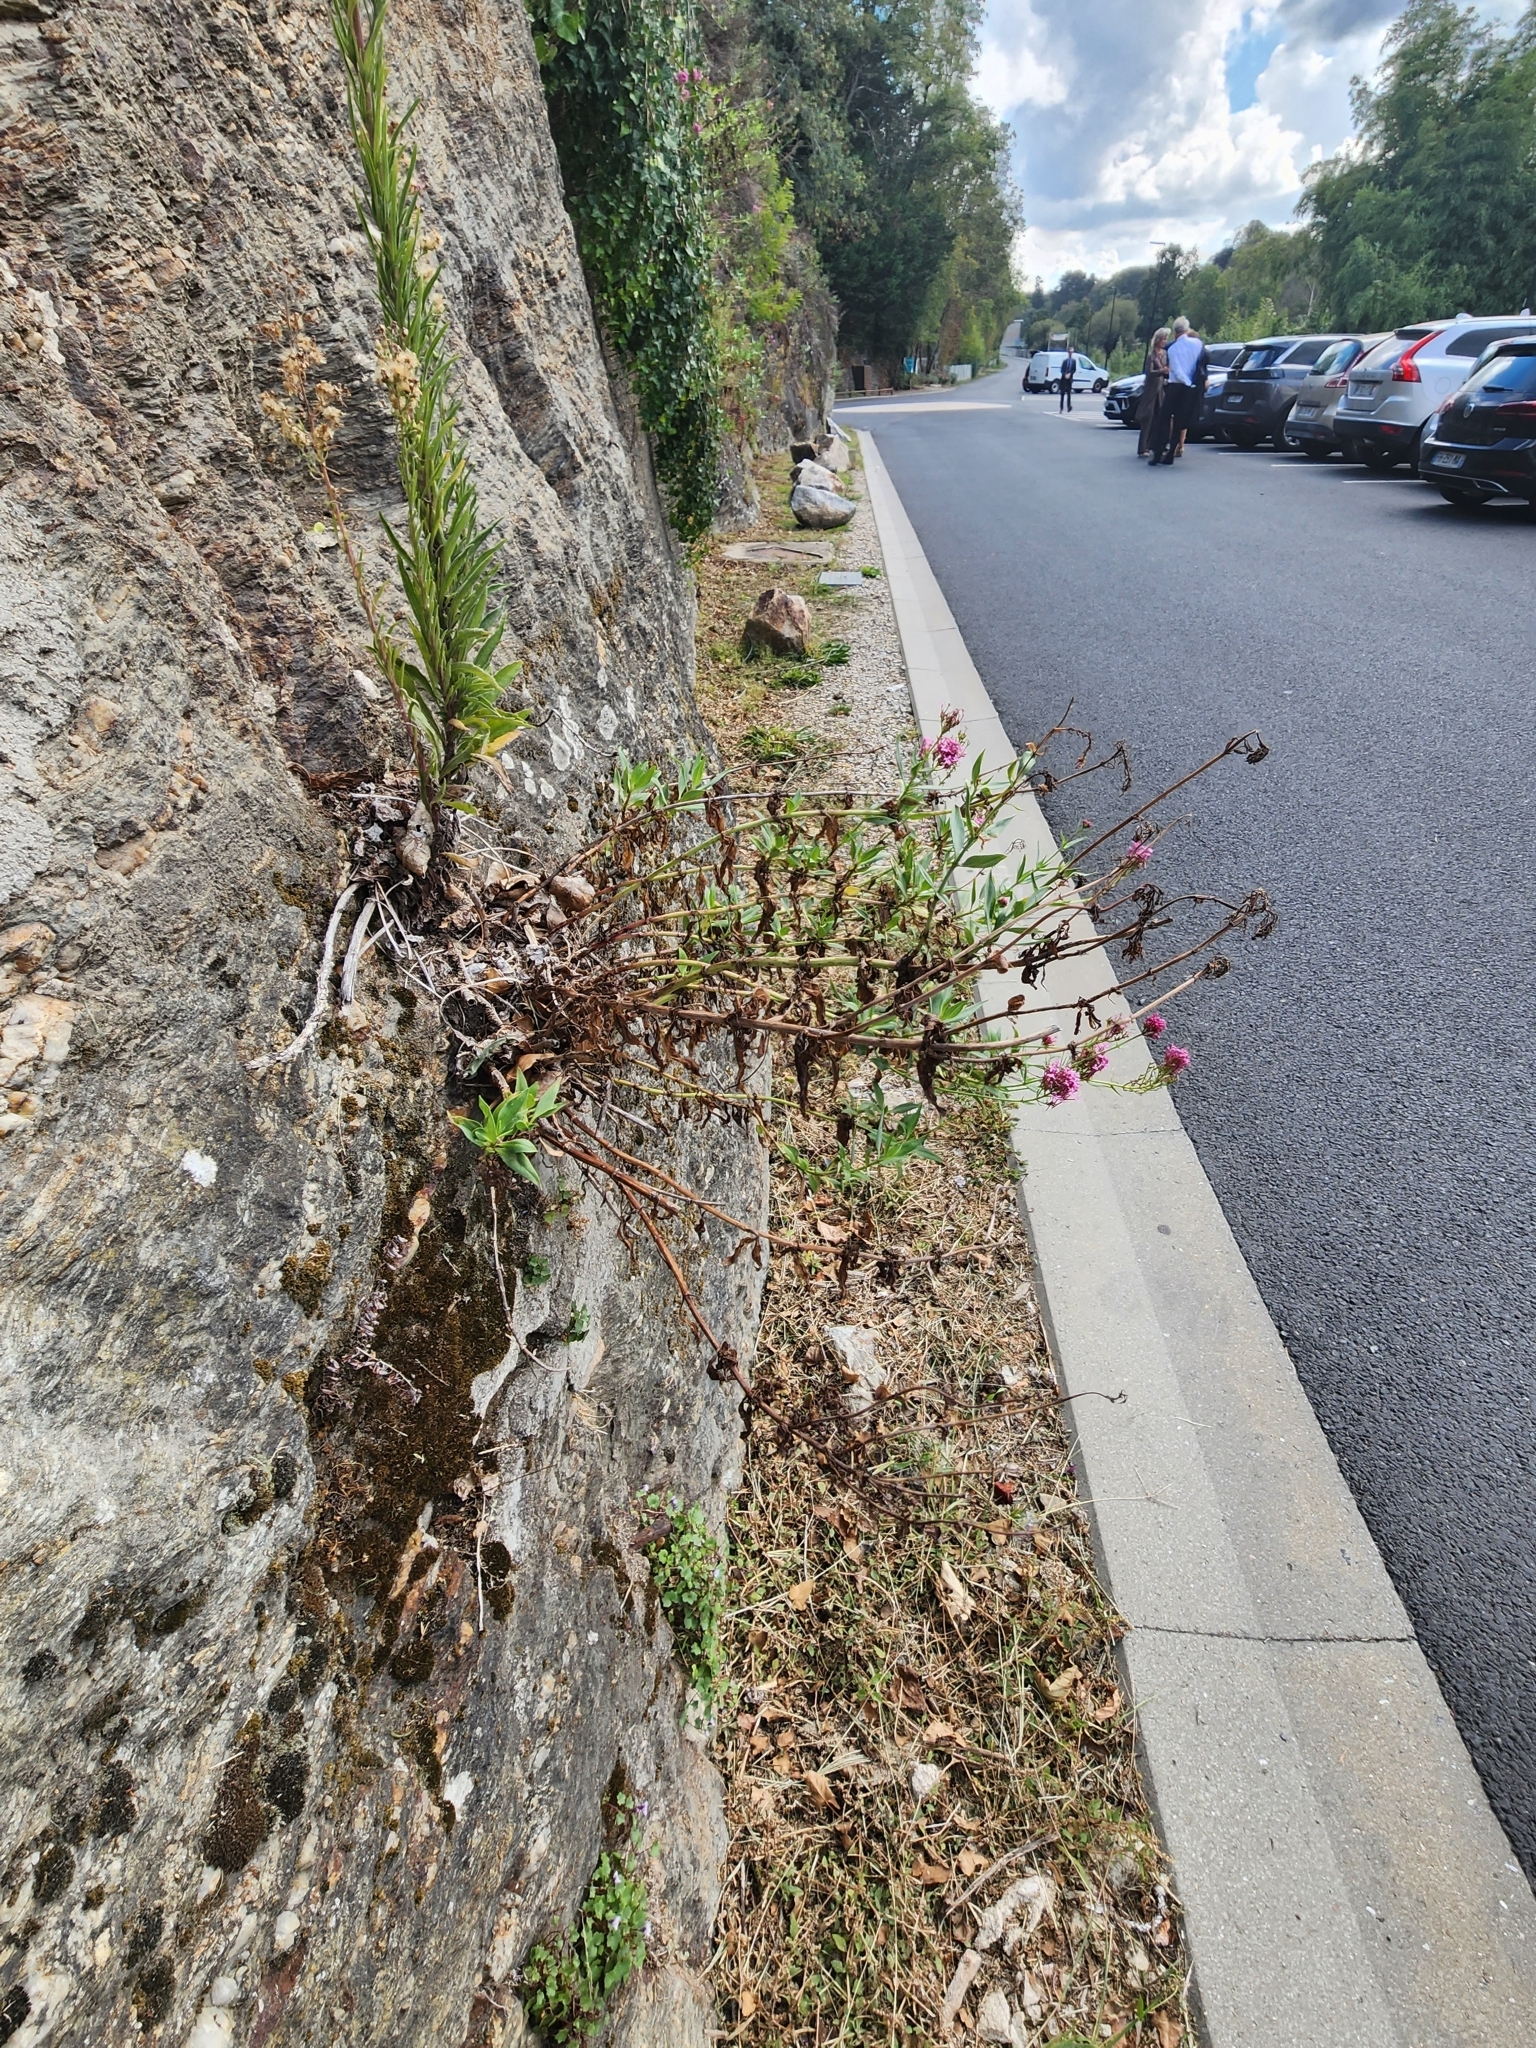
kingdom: Plantae
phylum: Tracheophyta
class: Magnoliopsida
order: Dipsacales
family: Caprifoliaceae
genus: Centranthus
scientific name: Centranthus ruber
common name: Red valerian
